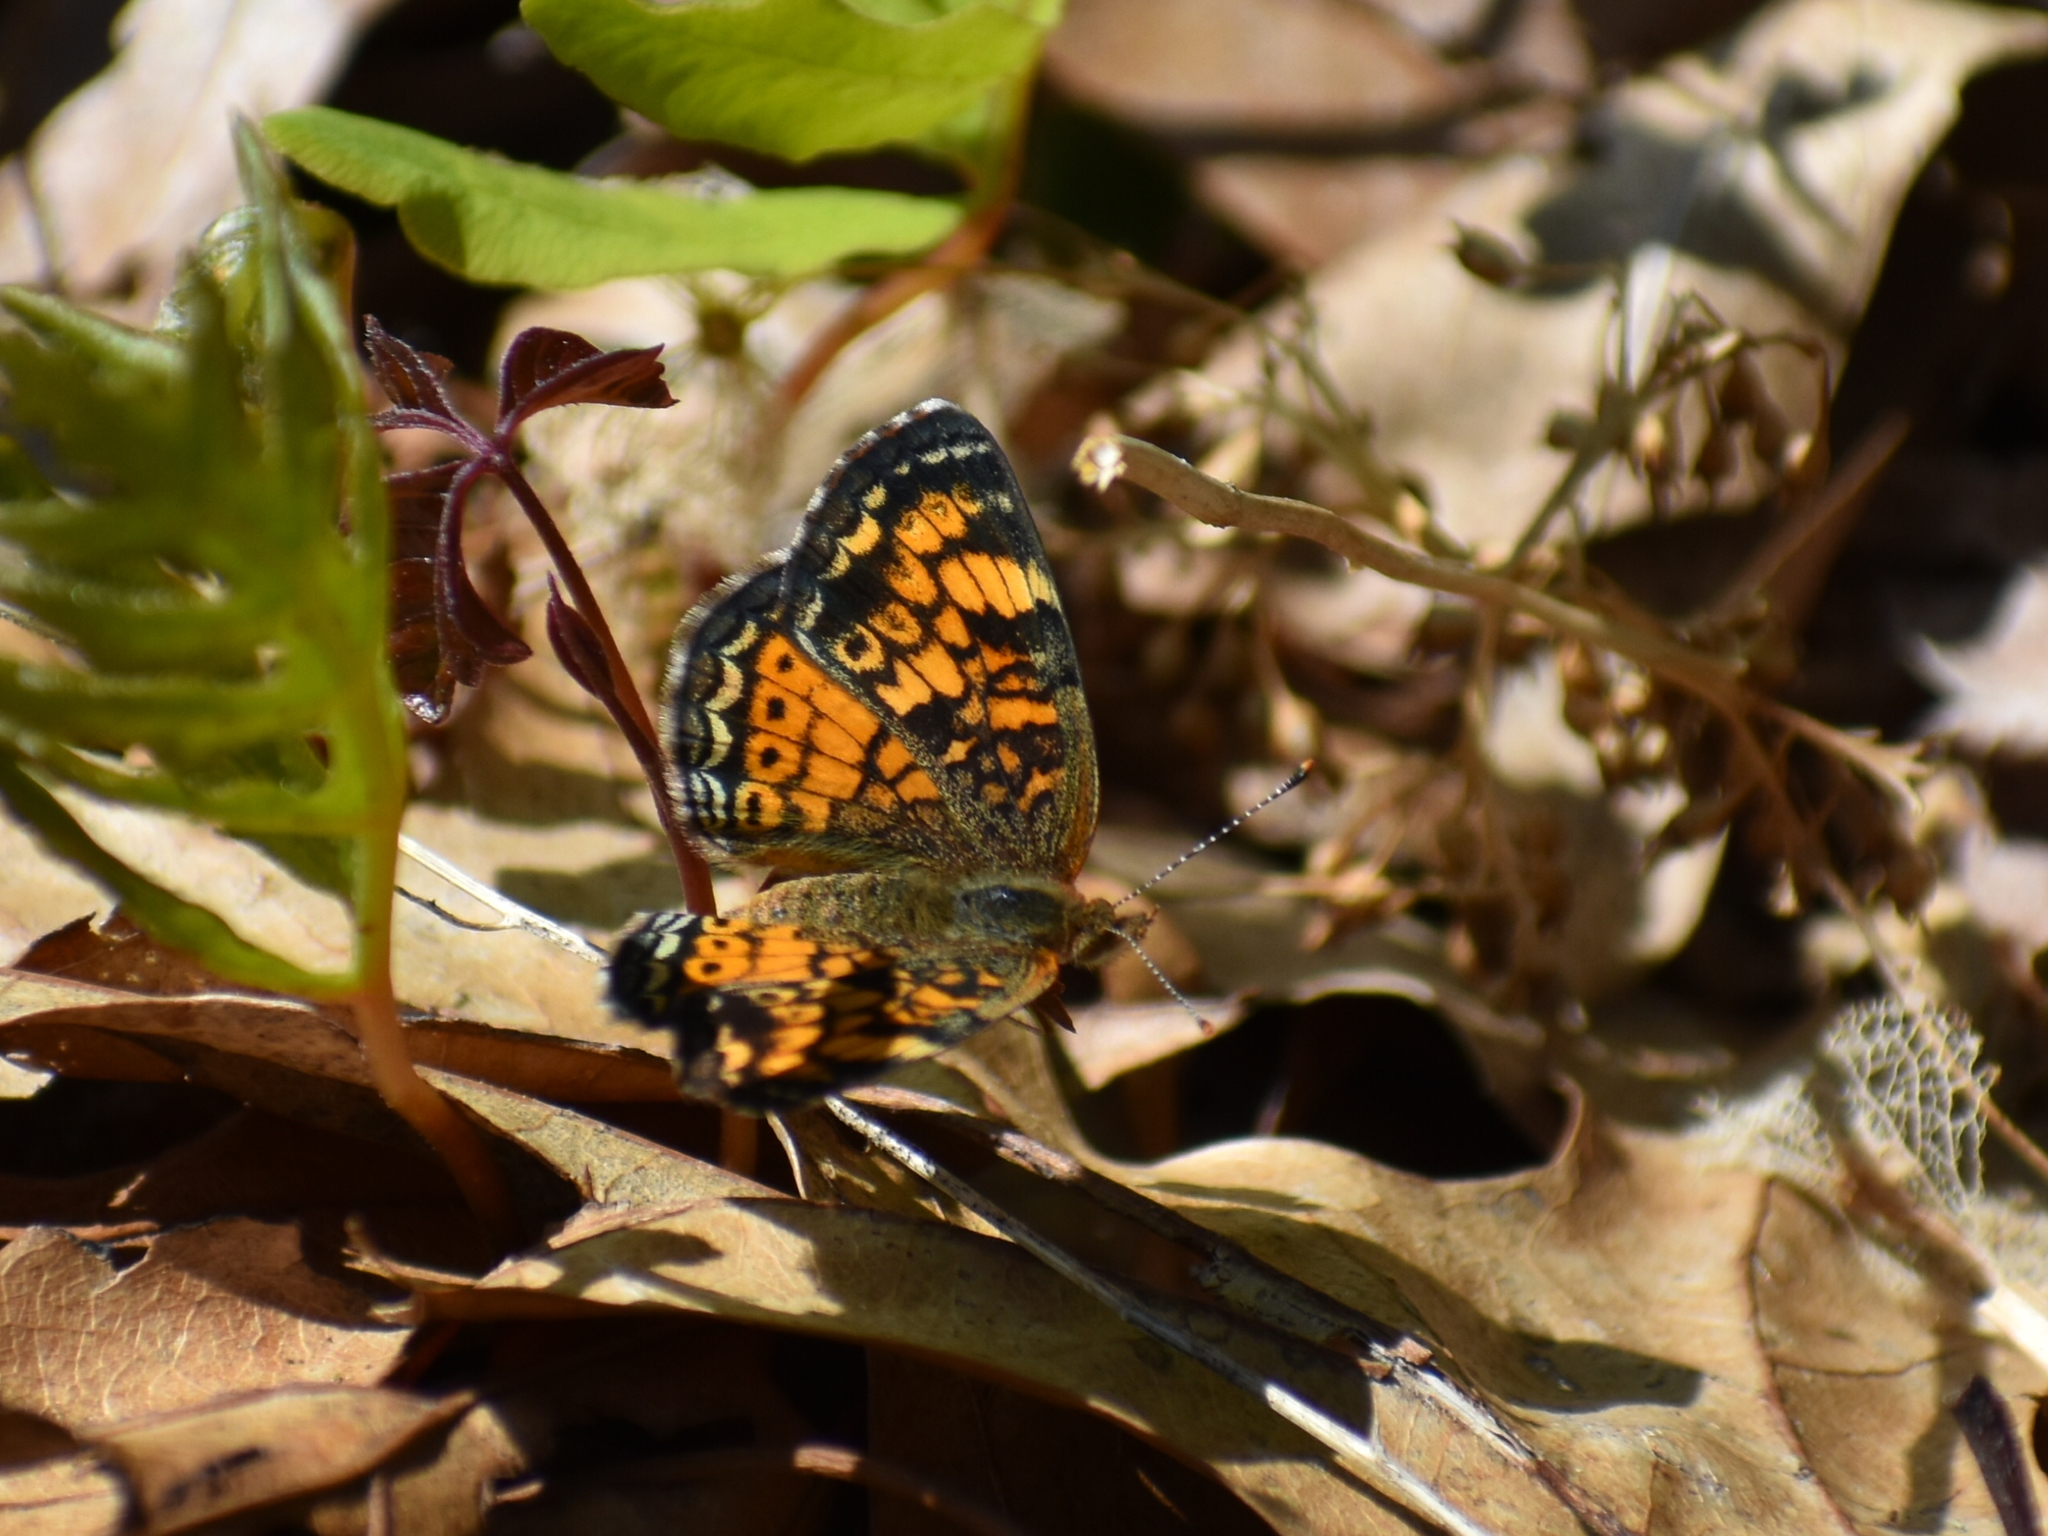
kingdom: Animalia
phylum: Arthropoda
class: Insecta
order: Lepidoptera
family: Nymphalidae
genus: Phyciodes
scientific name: Phyciodes tharos
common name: Pearl crescent
